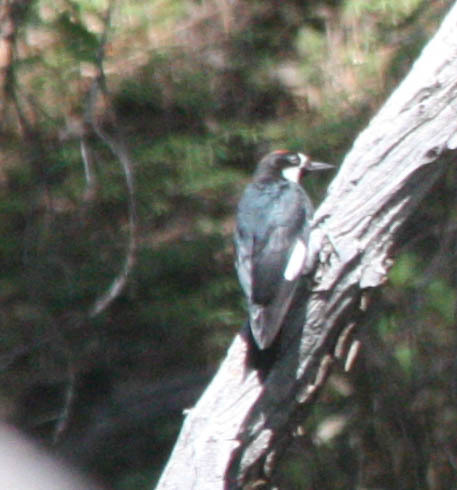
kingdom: Animalia
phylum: Chordata
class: Aves
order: Piciformes
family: Picidae
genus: Melanerpes
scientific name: Melanerpes formicivorus
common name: Acorn woodpecker
